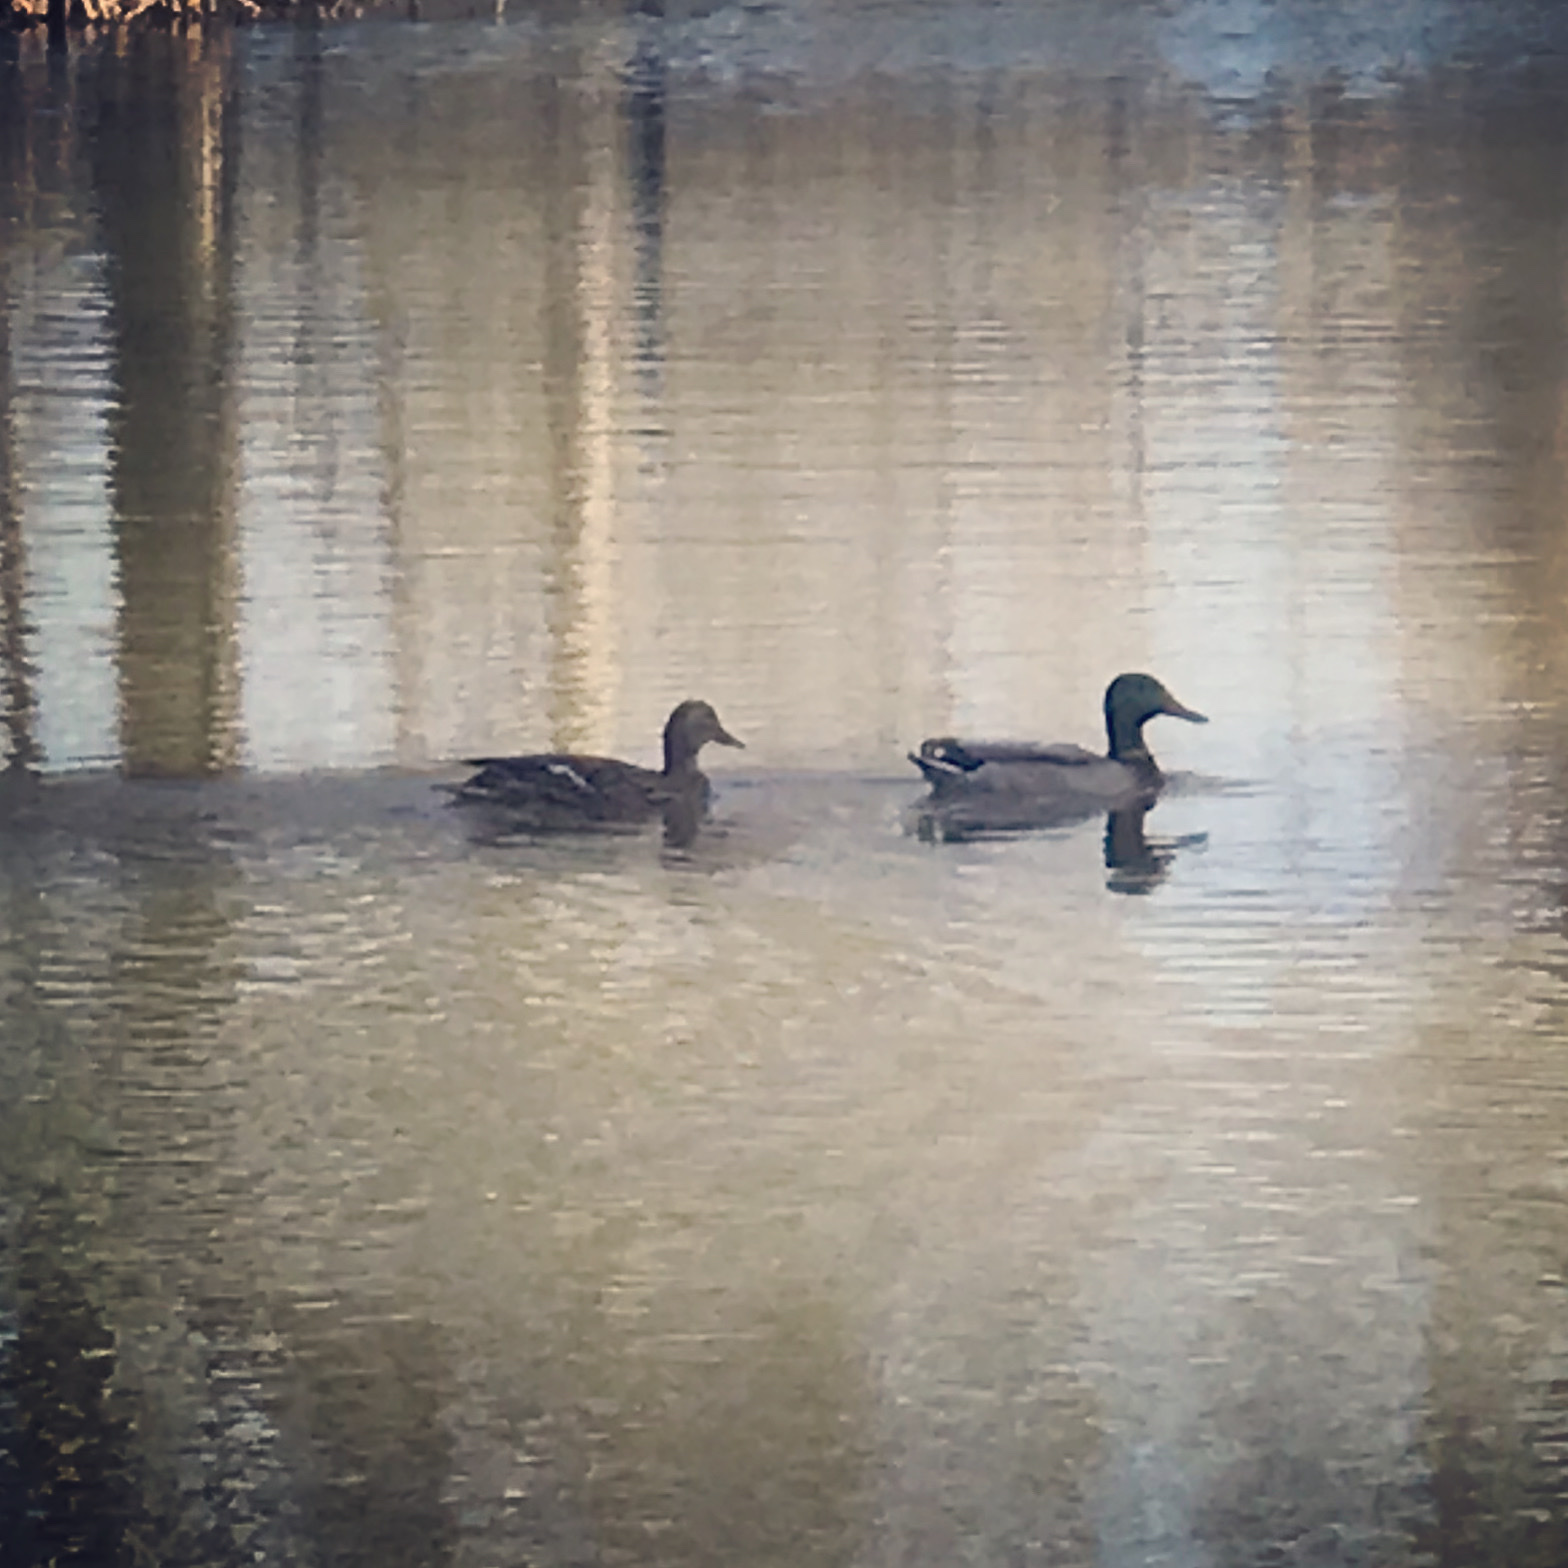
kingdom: Animalia
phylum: Chordata
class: Aves
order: Anseriformes
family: Anatidae
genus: Anas
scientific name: Anas platyrhynchos
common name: Mallard
